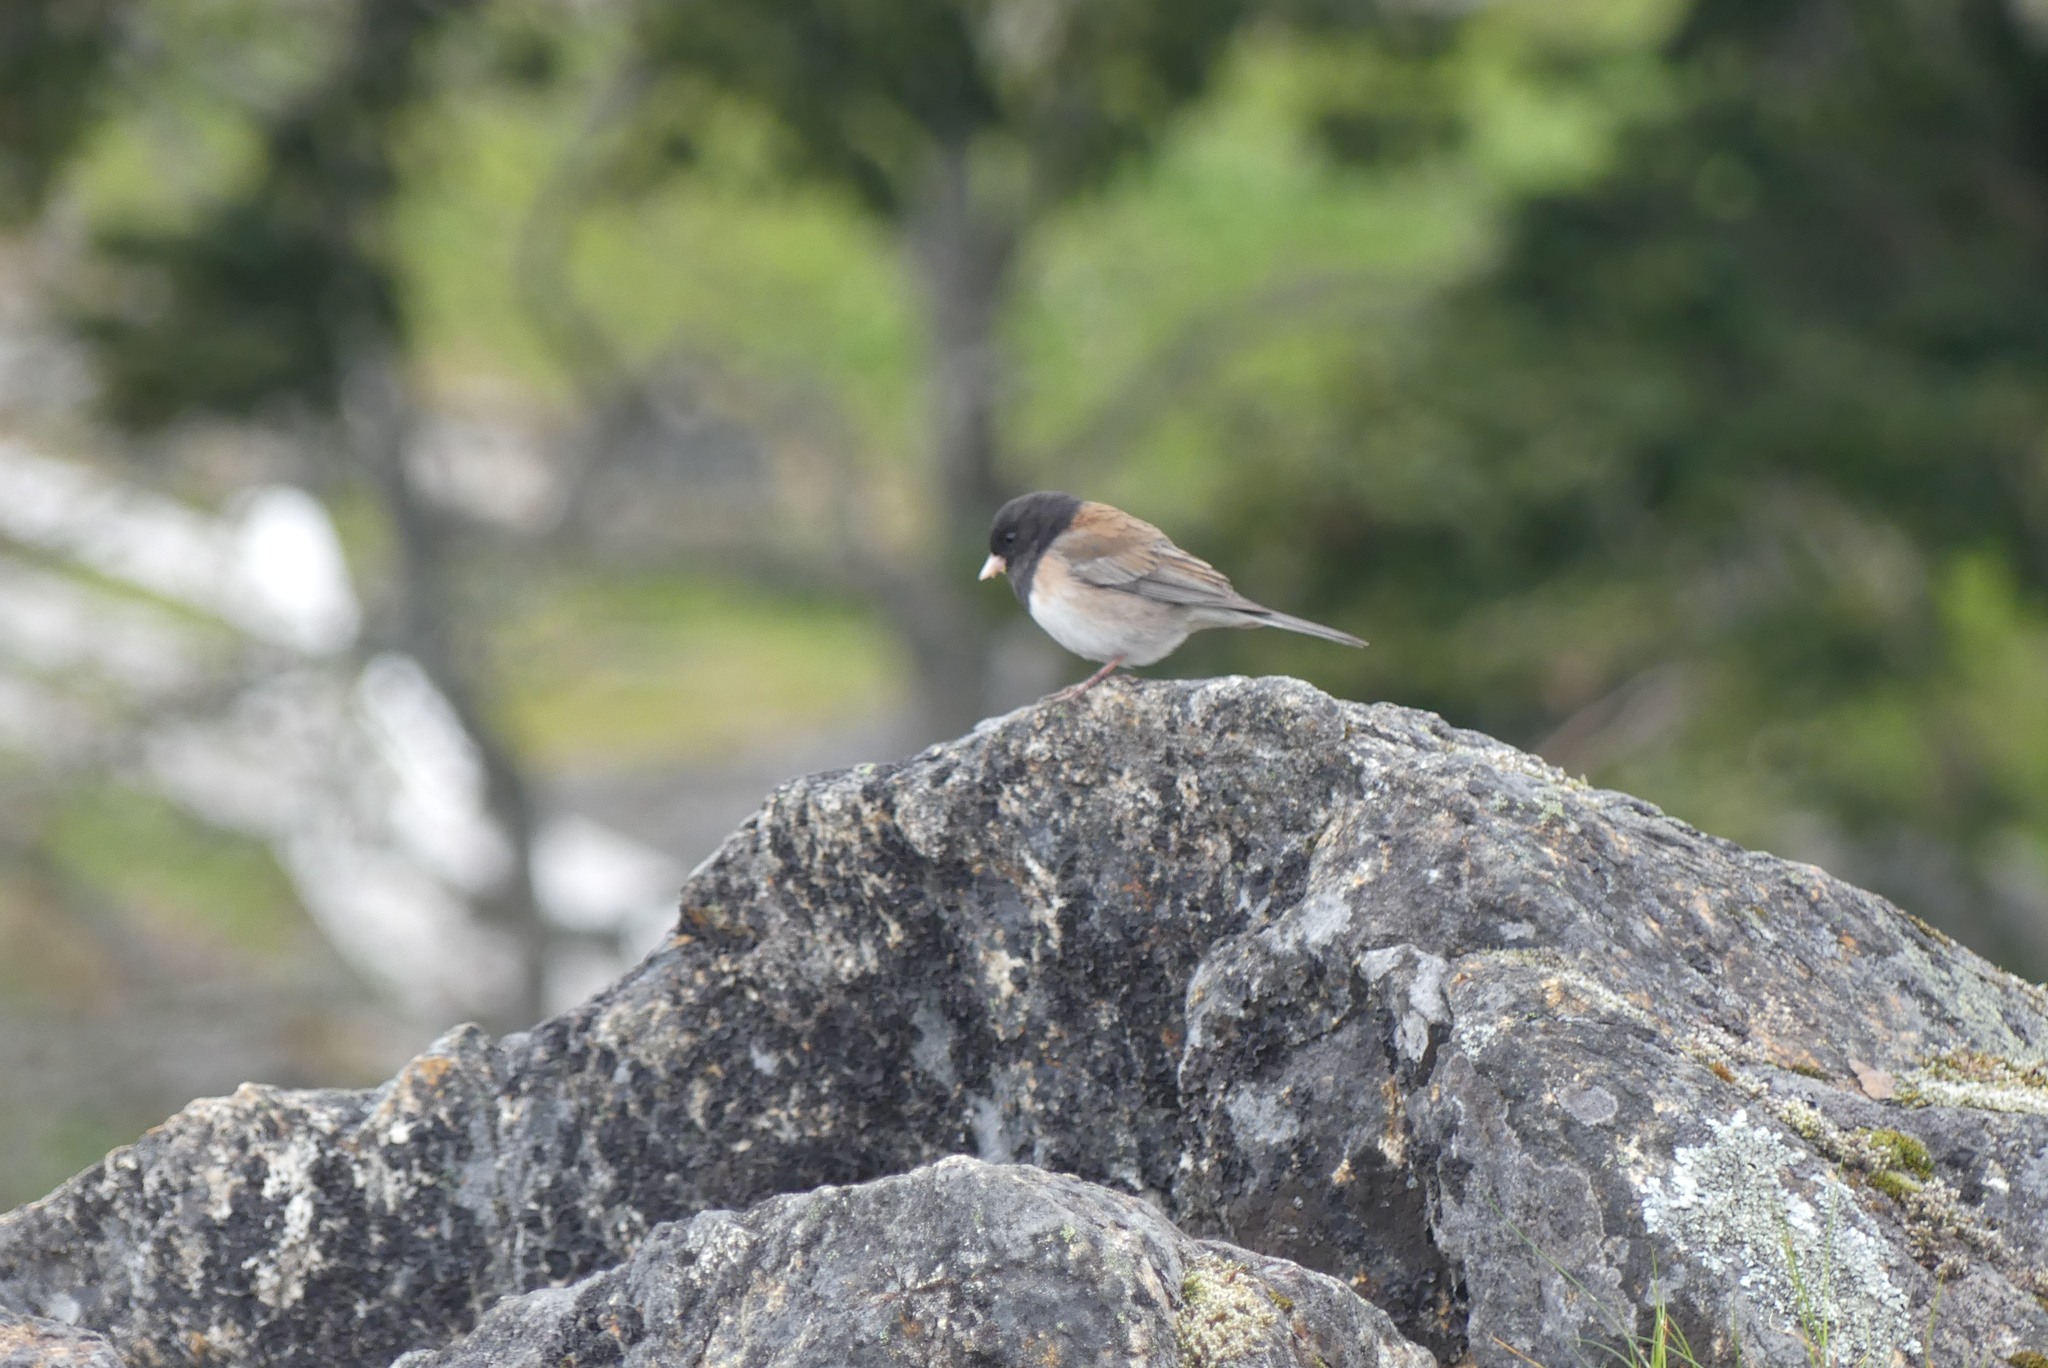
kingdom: Animalia
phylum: Chordata
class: Aves
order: Passeriformes
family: Passerellidae
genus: Junco
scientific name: Junco hyemalis
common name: Dark-eyed junco
